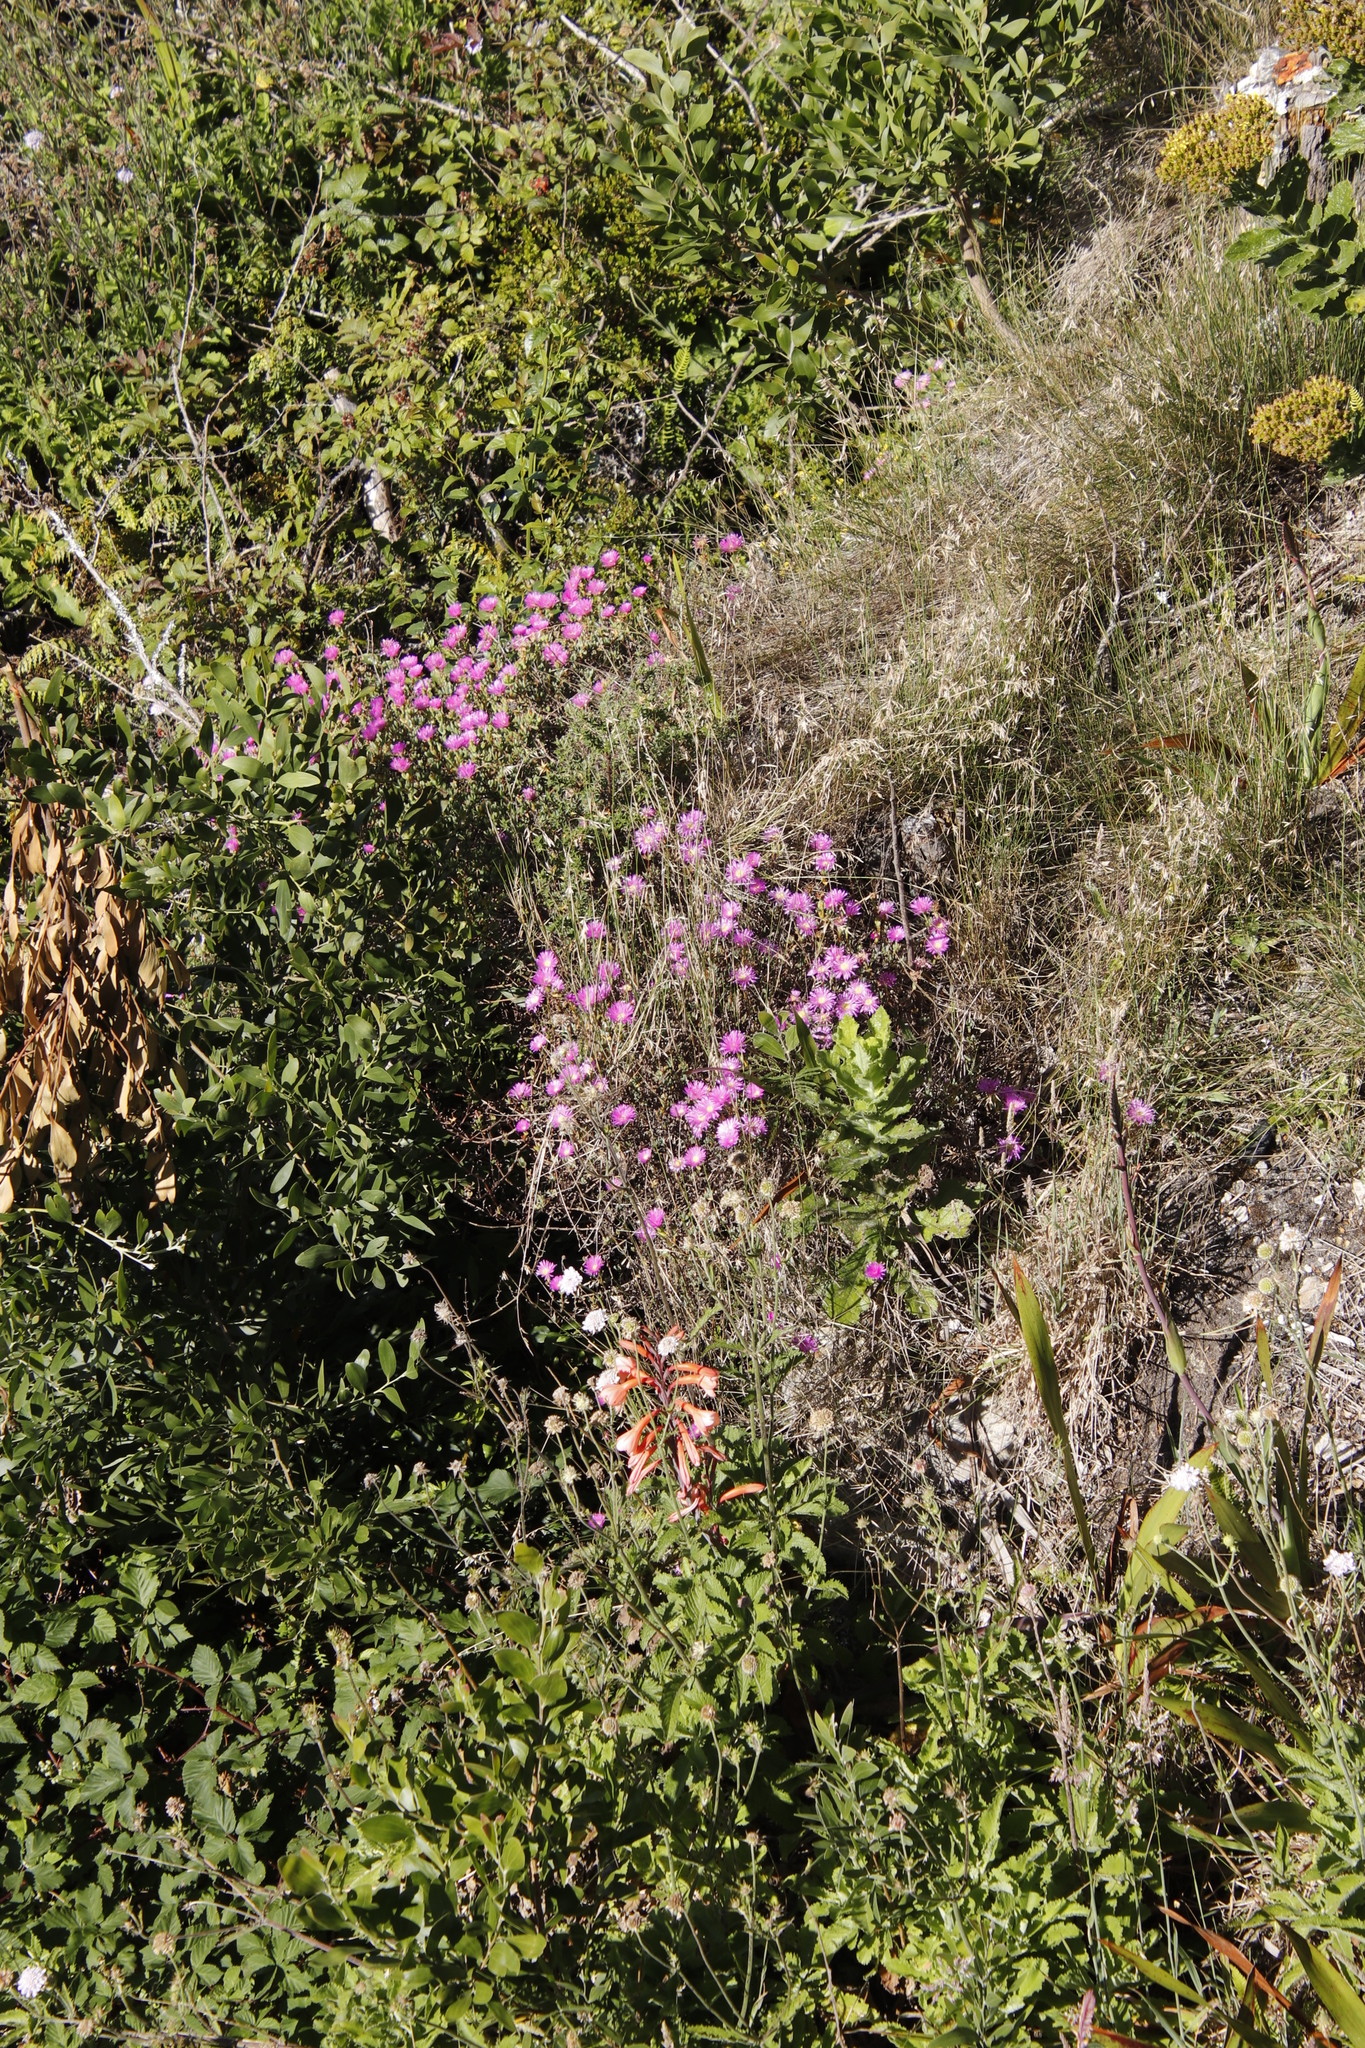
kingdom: Plantae
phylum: Tracheophyta
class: Magnoliopsida
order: Caryophyllales
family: Aizoaceae
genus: Oscularia
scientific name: Oscularia falciformis
